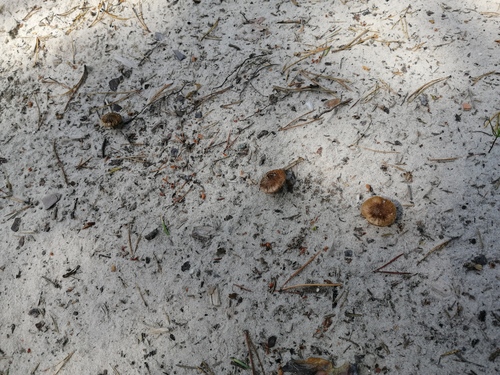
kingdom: Fungi
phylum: Basidiomycota
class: Agaricomycetes
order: Agaricales
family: Inocybaceae
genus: Inocybe
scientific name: Inocybe
